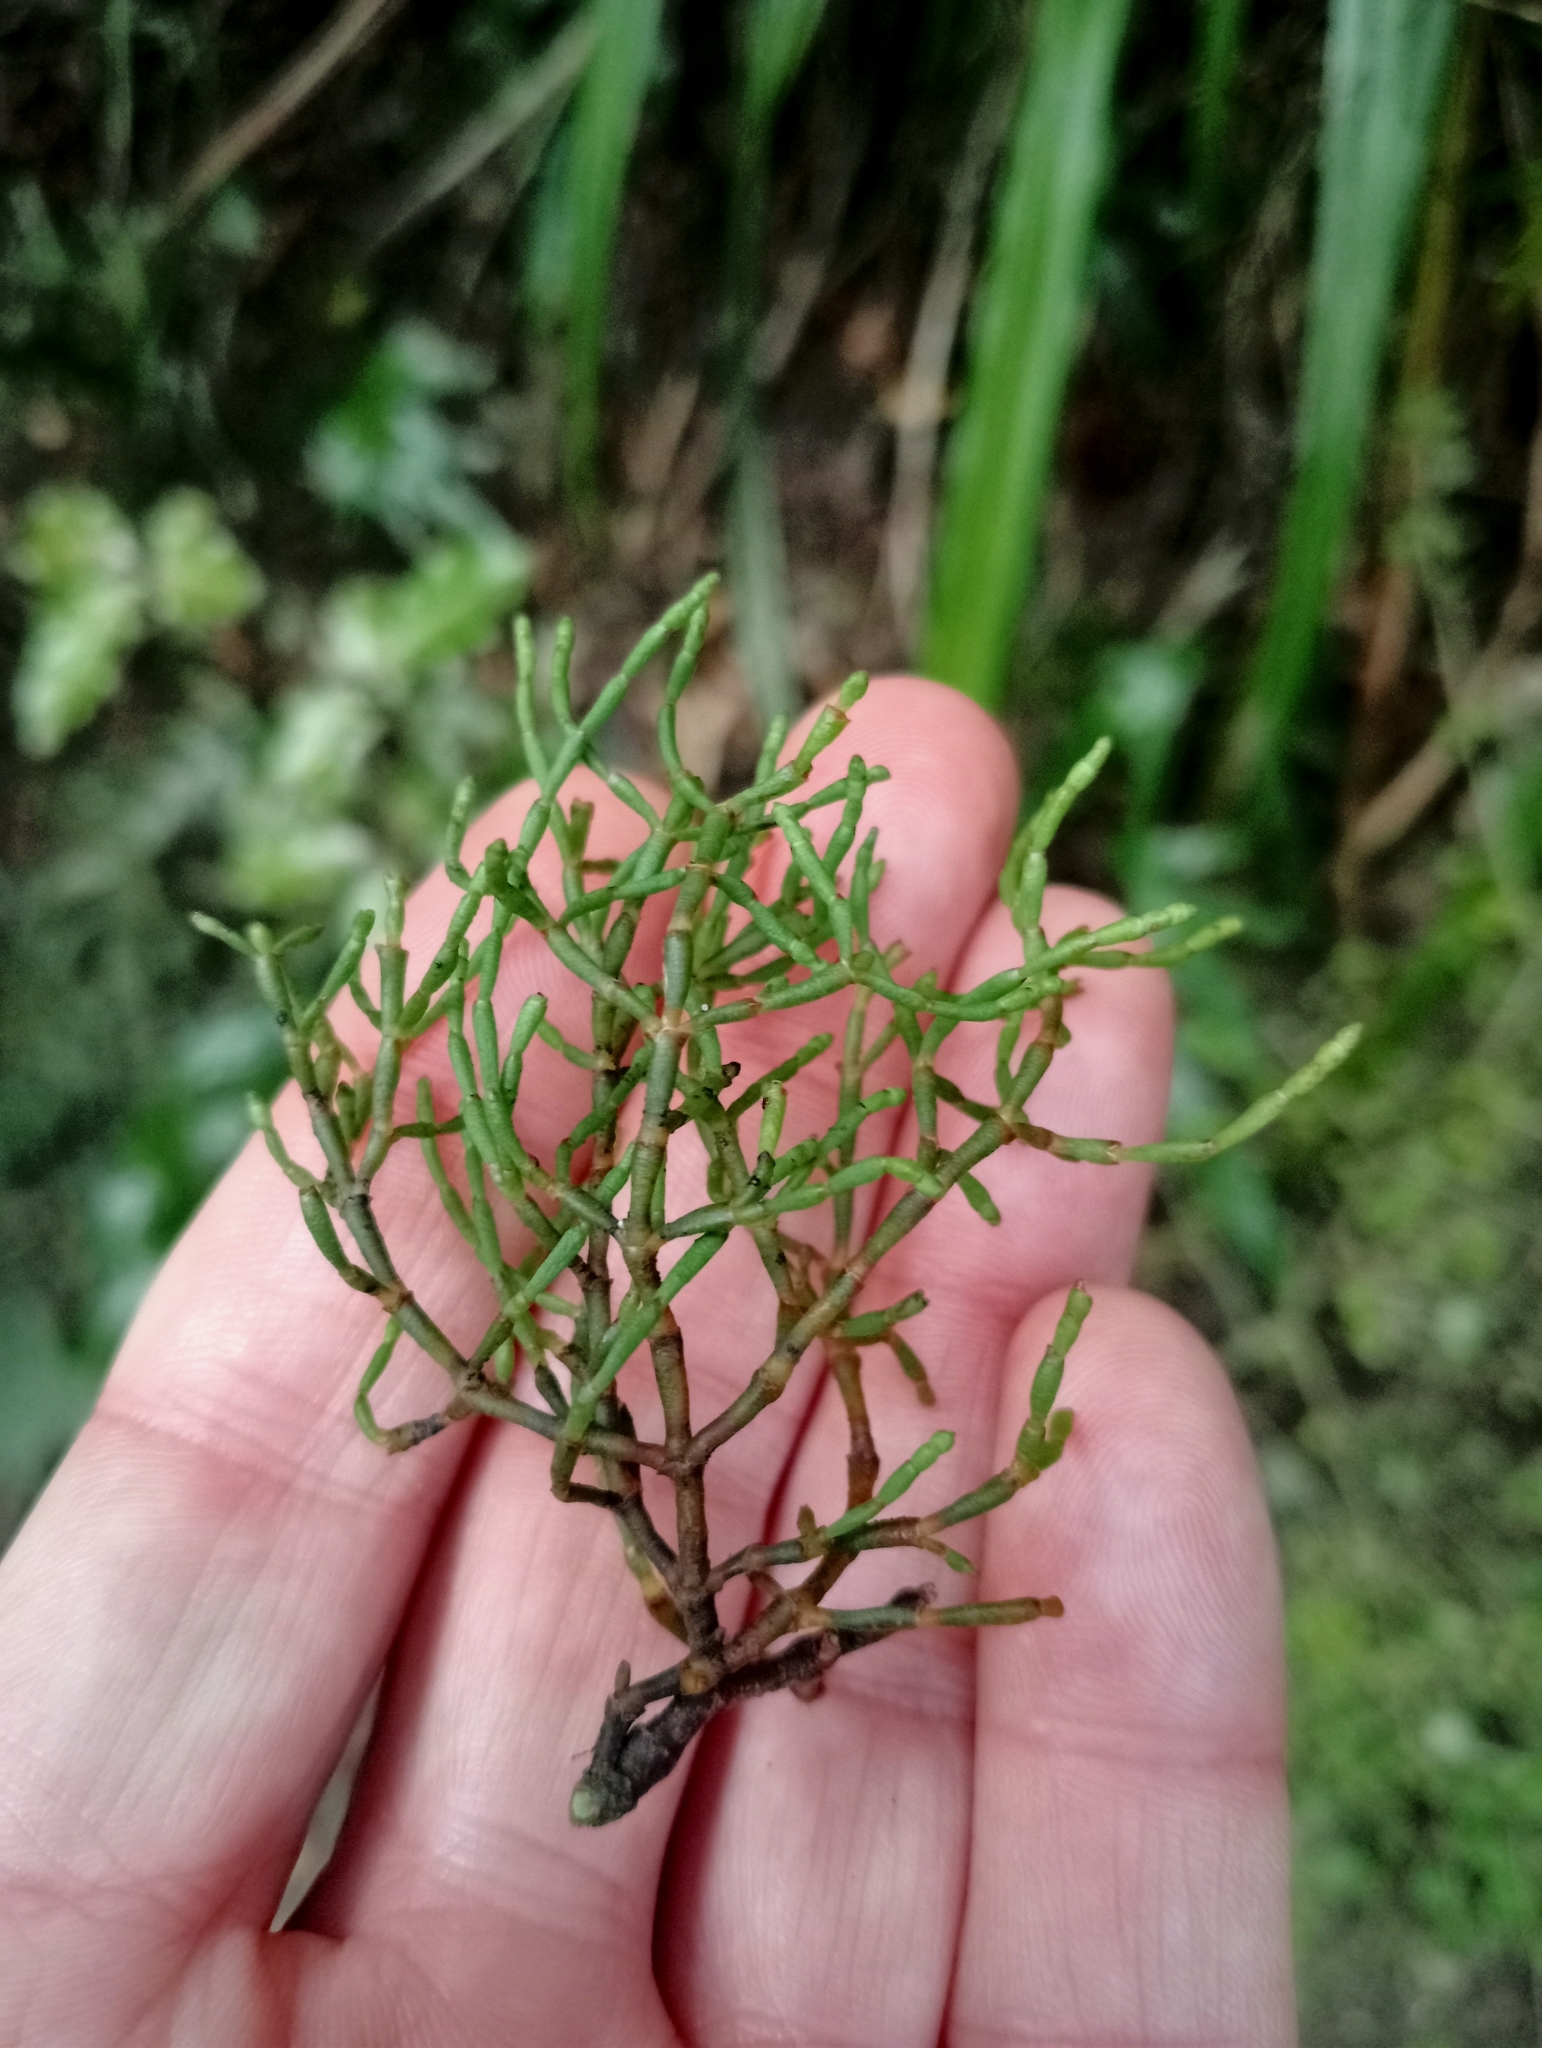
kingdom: Plantae
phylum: Tracheophyta
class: Magnoliopsida
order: Santalales
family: Viscaceae
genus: Korthalsella
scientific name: Korthalsella salicornioides
